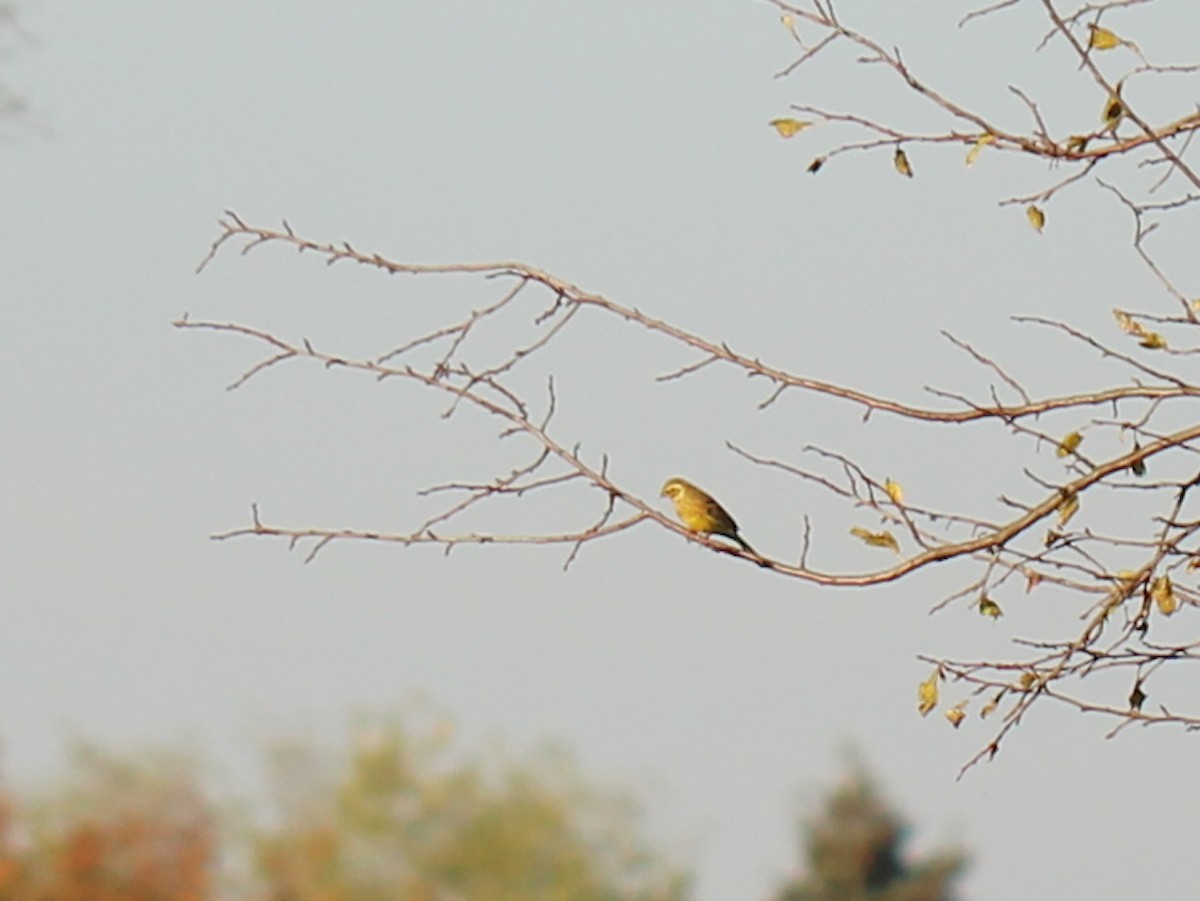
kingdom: Animalia
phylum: Chordata
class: Aves
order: Passeriformes
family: Emberizidae
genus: Emberiza
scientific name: Emberiza citrinella
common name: Yellowhammer
